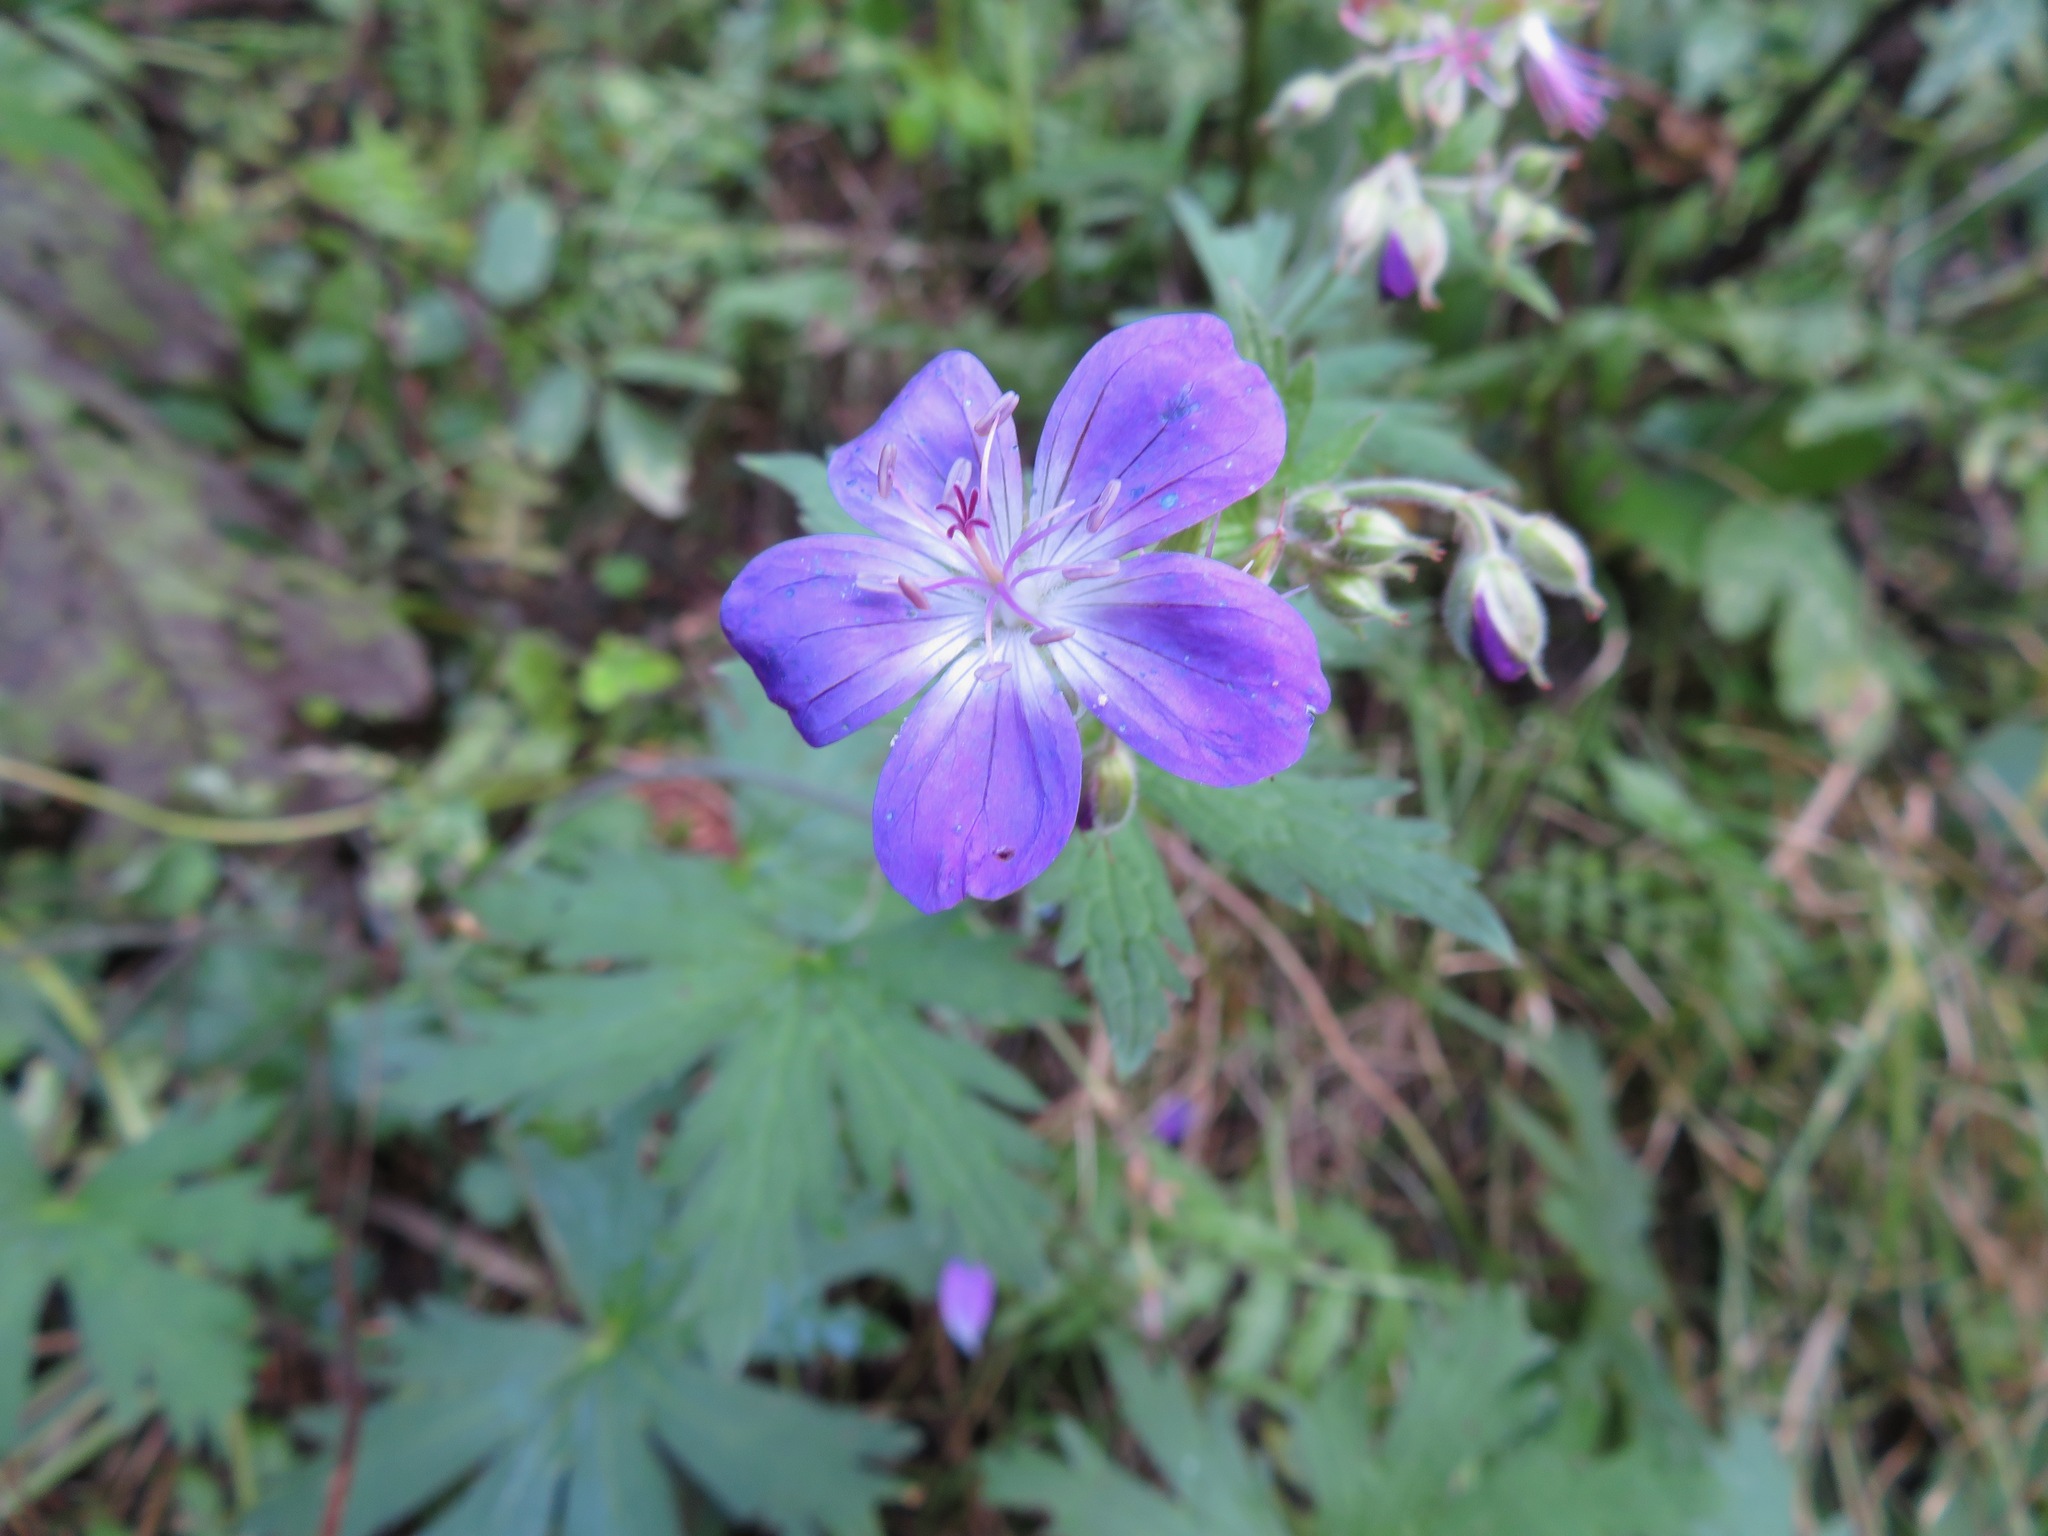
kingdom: Plantae
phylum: Tracheophyta
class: Magnoliopsida
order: Geraniales
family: Geraniaceae
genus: Geranium
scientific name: Geranium sylvaticum
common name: Wood crane's-bill
